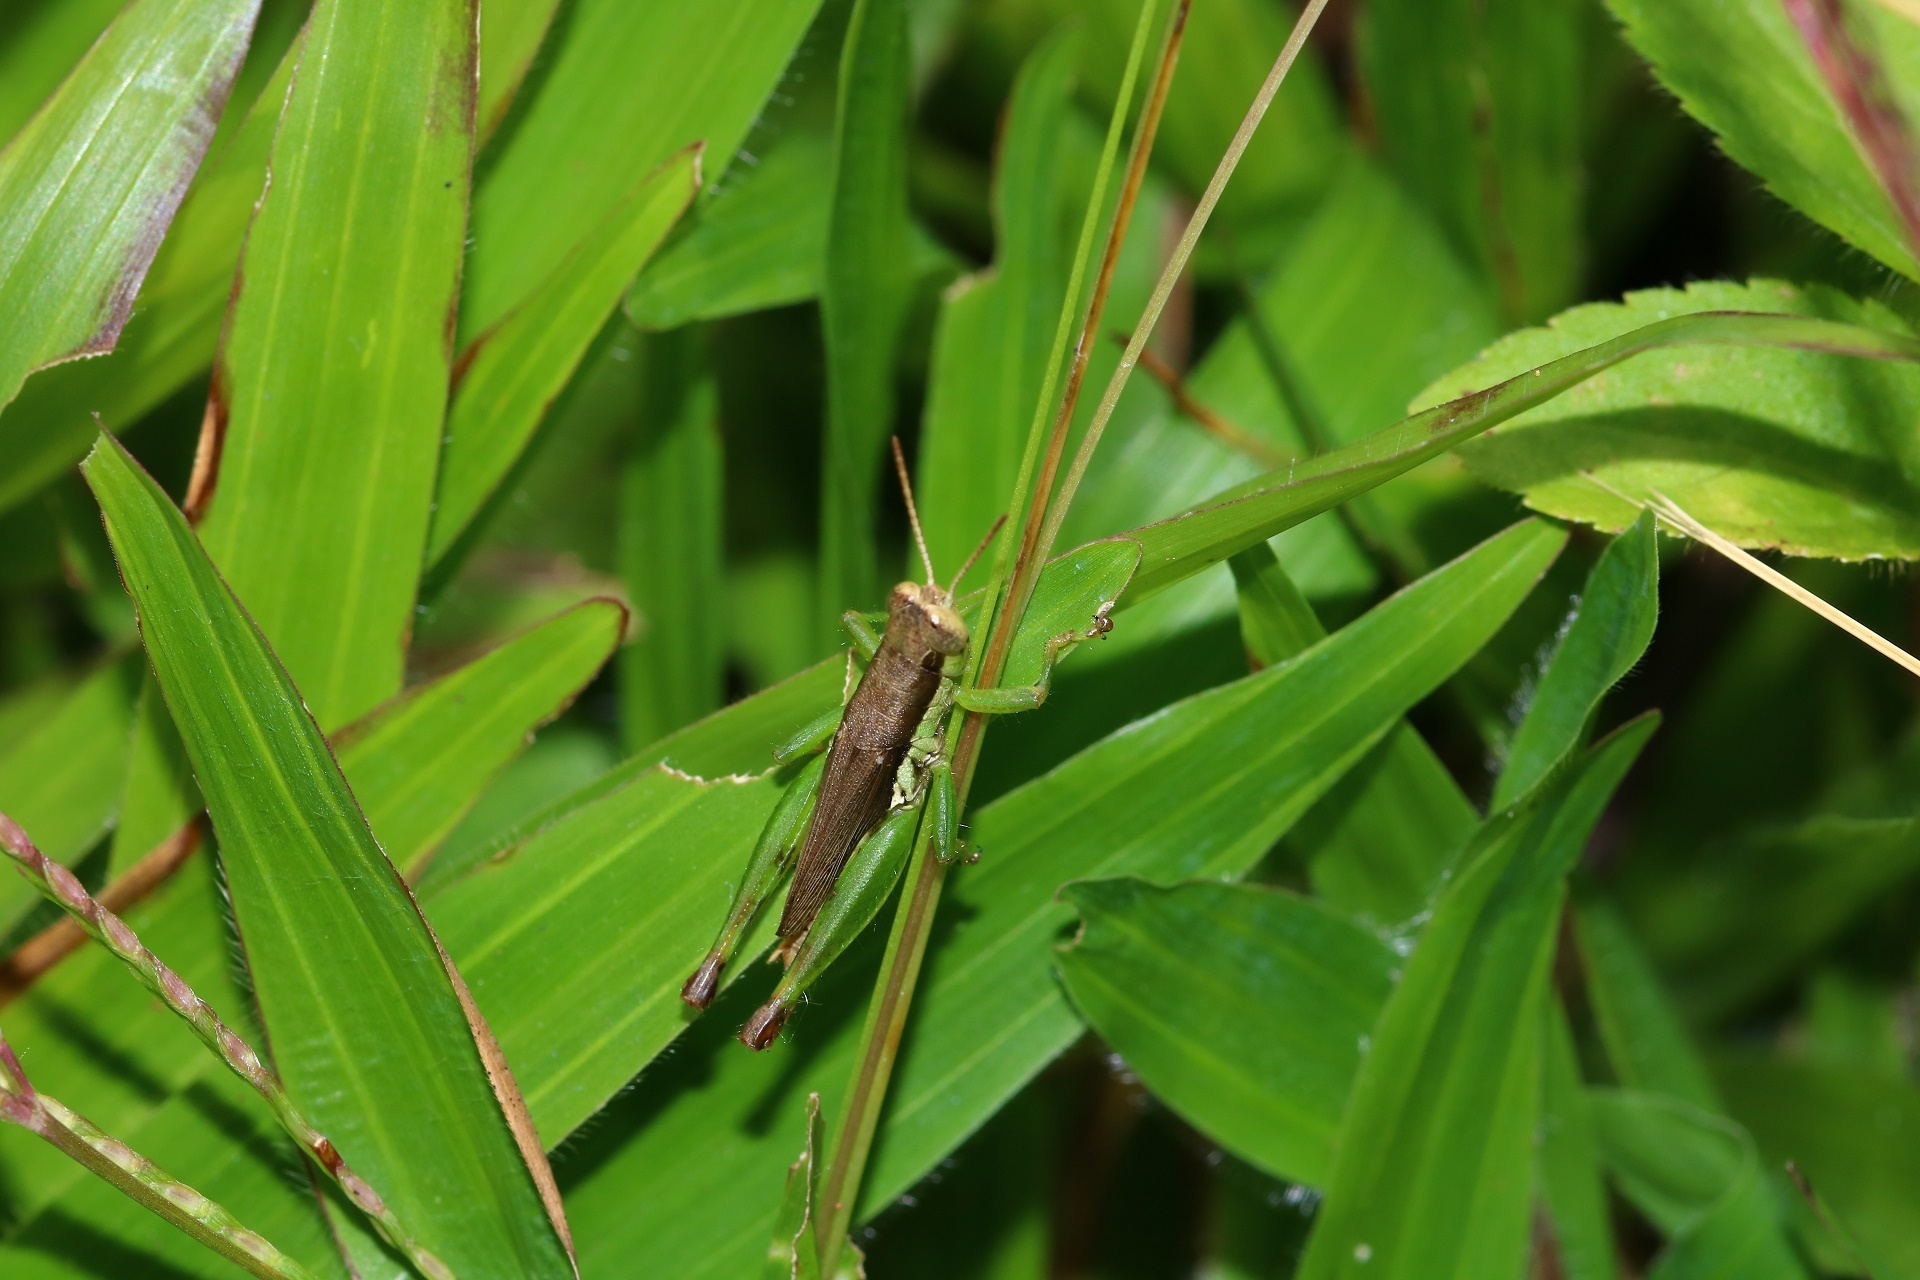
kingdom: Animalia
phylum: Arthropoda
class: Insecta
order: Orthoptera
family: Acrididae
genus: Pseudoxya
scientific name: Pseudoxya diminuta
